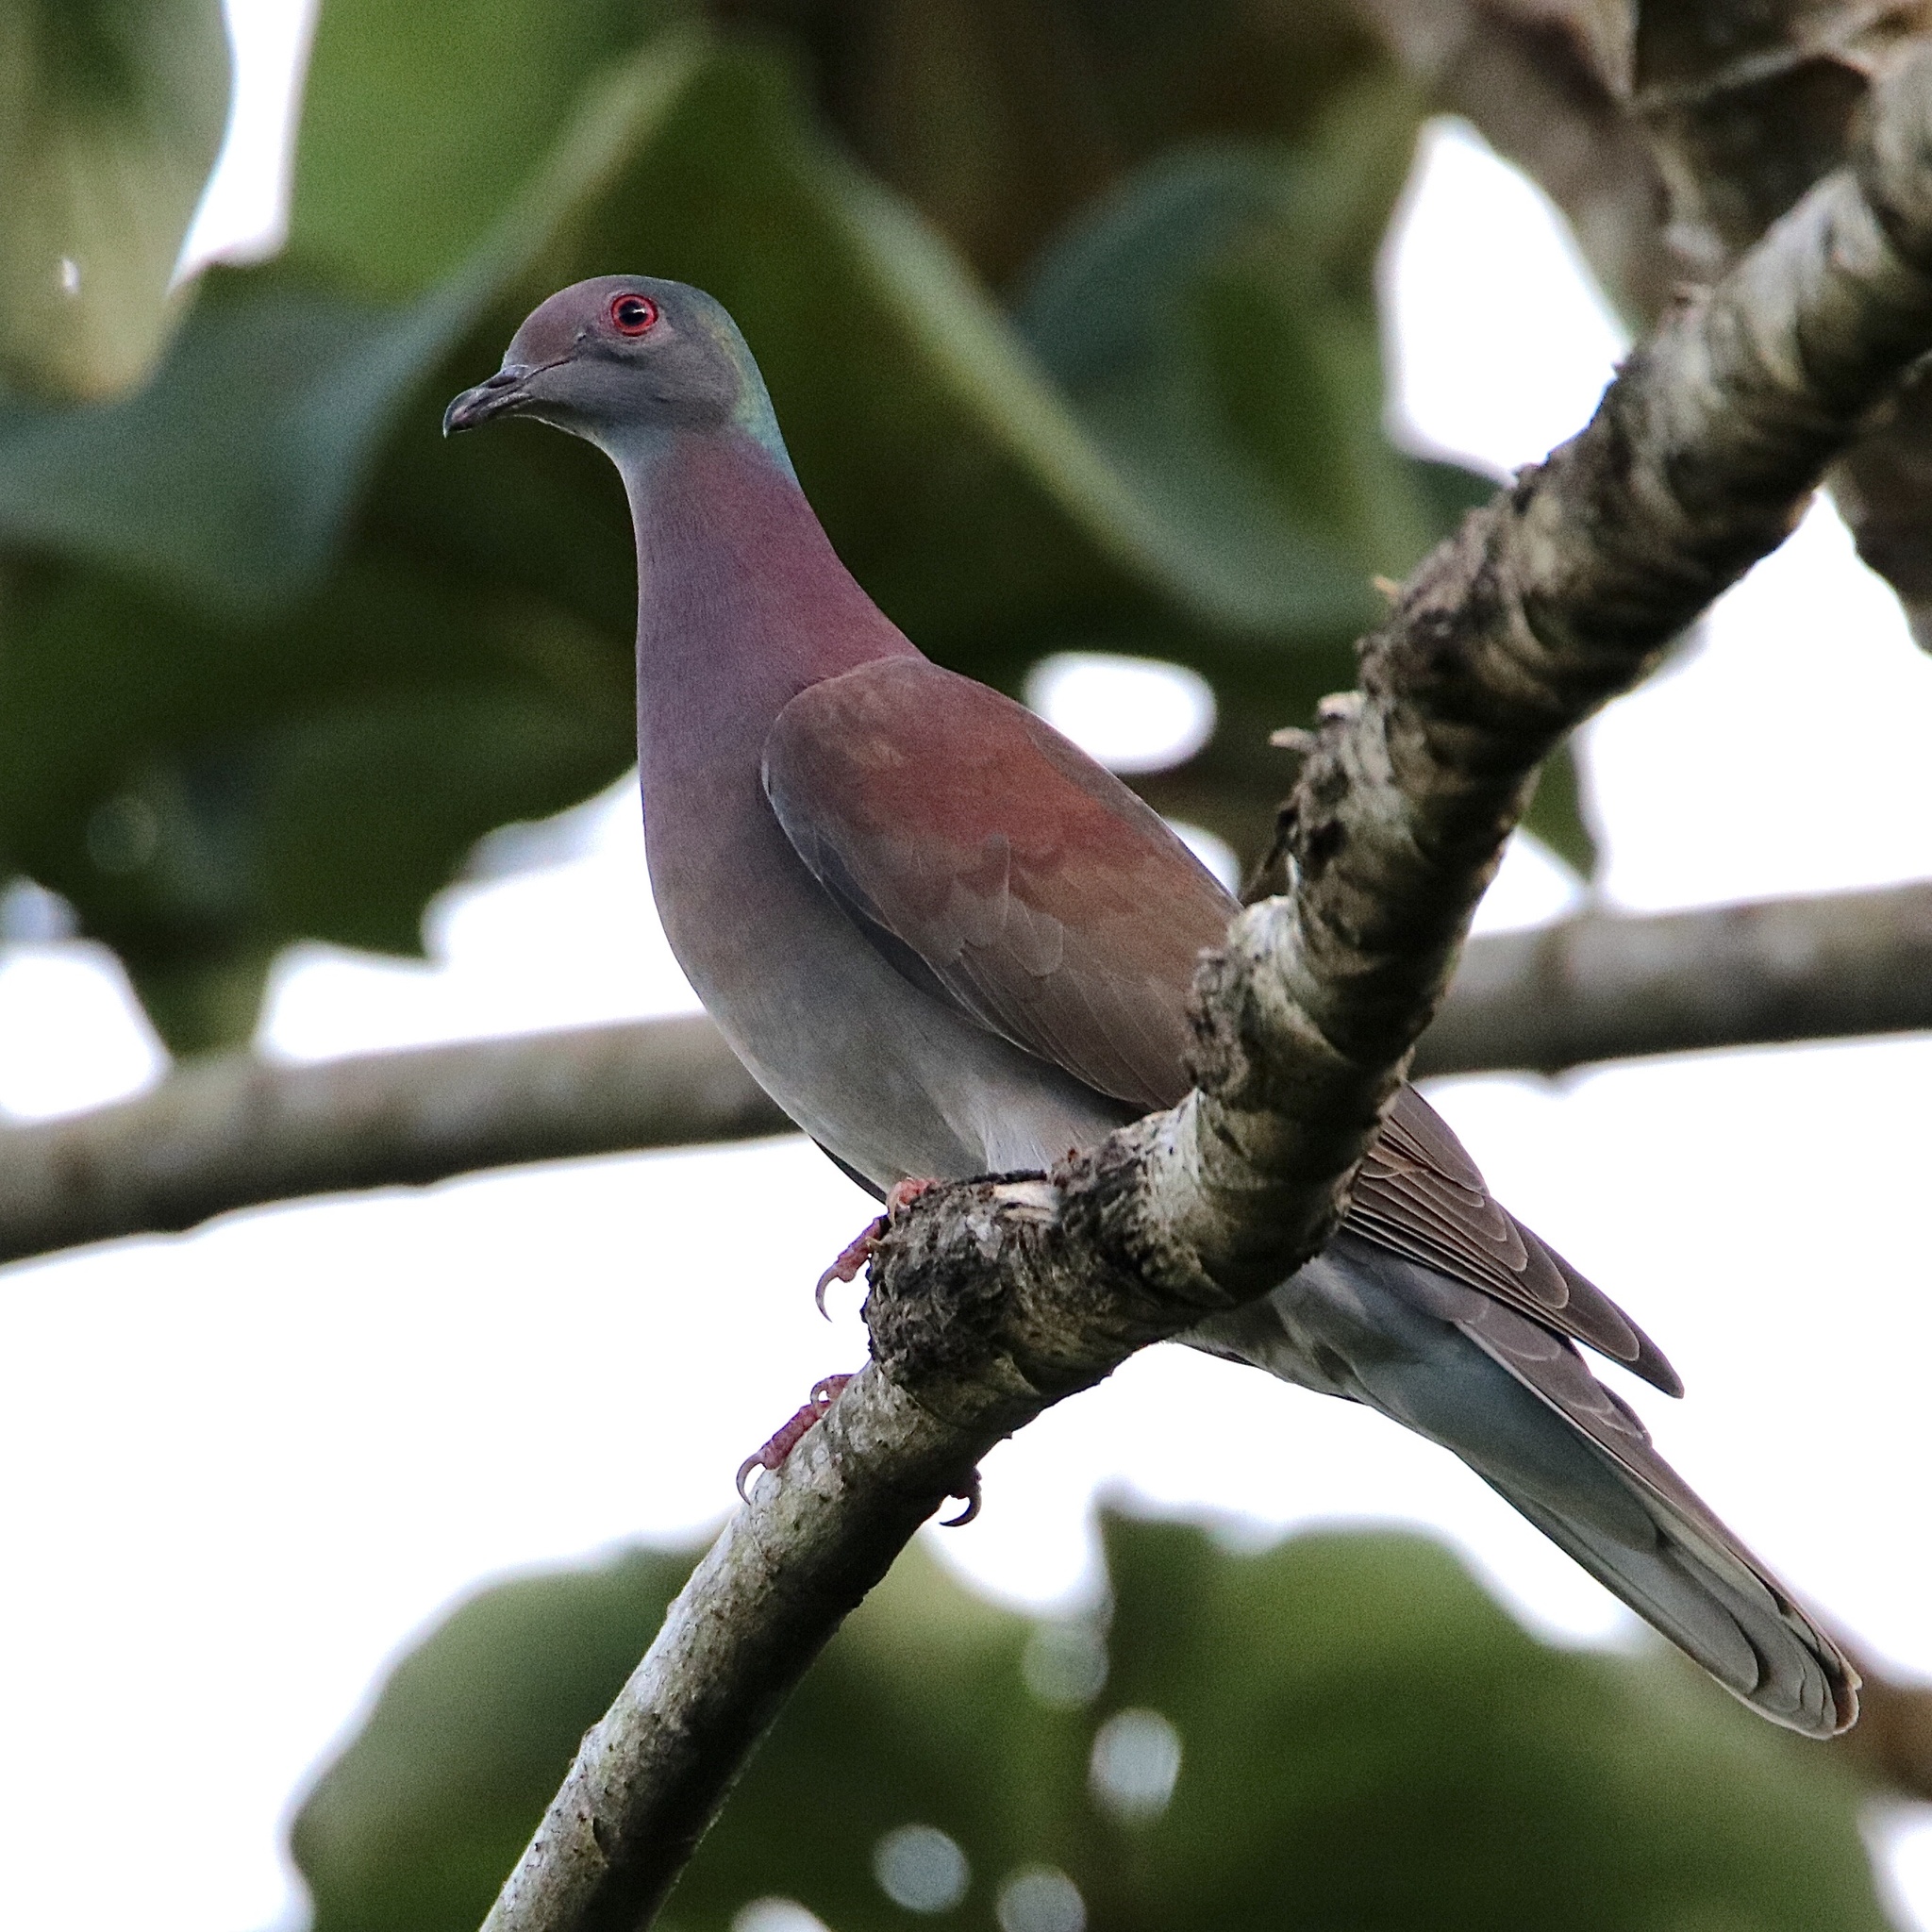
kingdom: Animalia
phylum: Chordata
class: Aves
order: Columbiformes
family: Columbidae
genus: Patagioenas
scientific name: Patagioenas cayennensis
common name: Pale-vented pigeon
